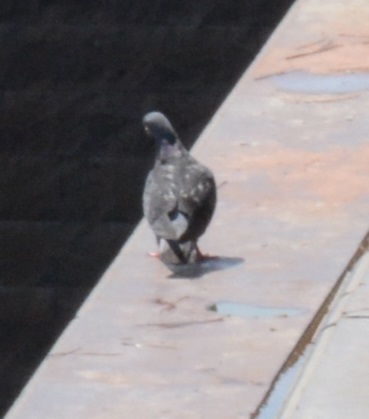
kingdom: Animalia
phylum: Chordata
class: Aves
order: Columbiformes
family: Columbidae
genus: Columba
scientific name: Columba livia
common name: Rock pigeon
